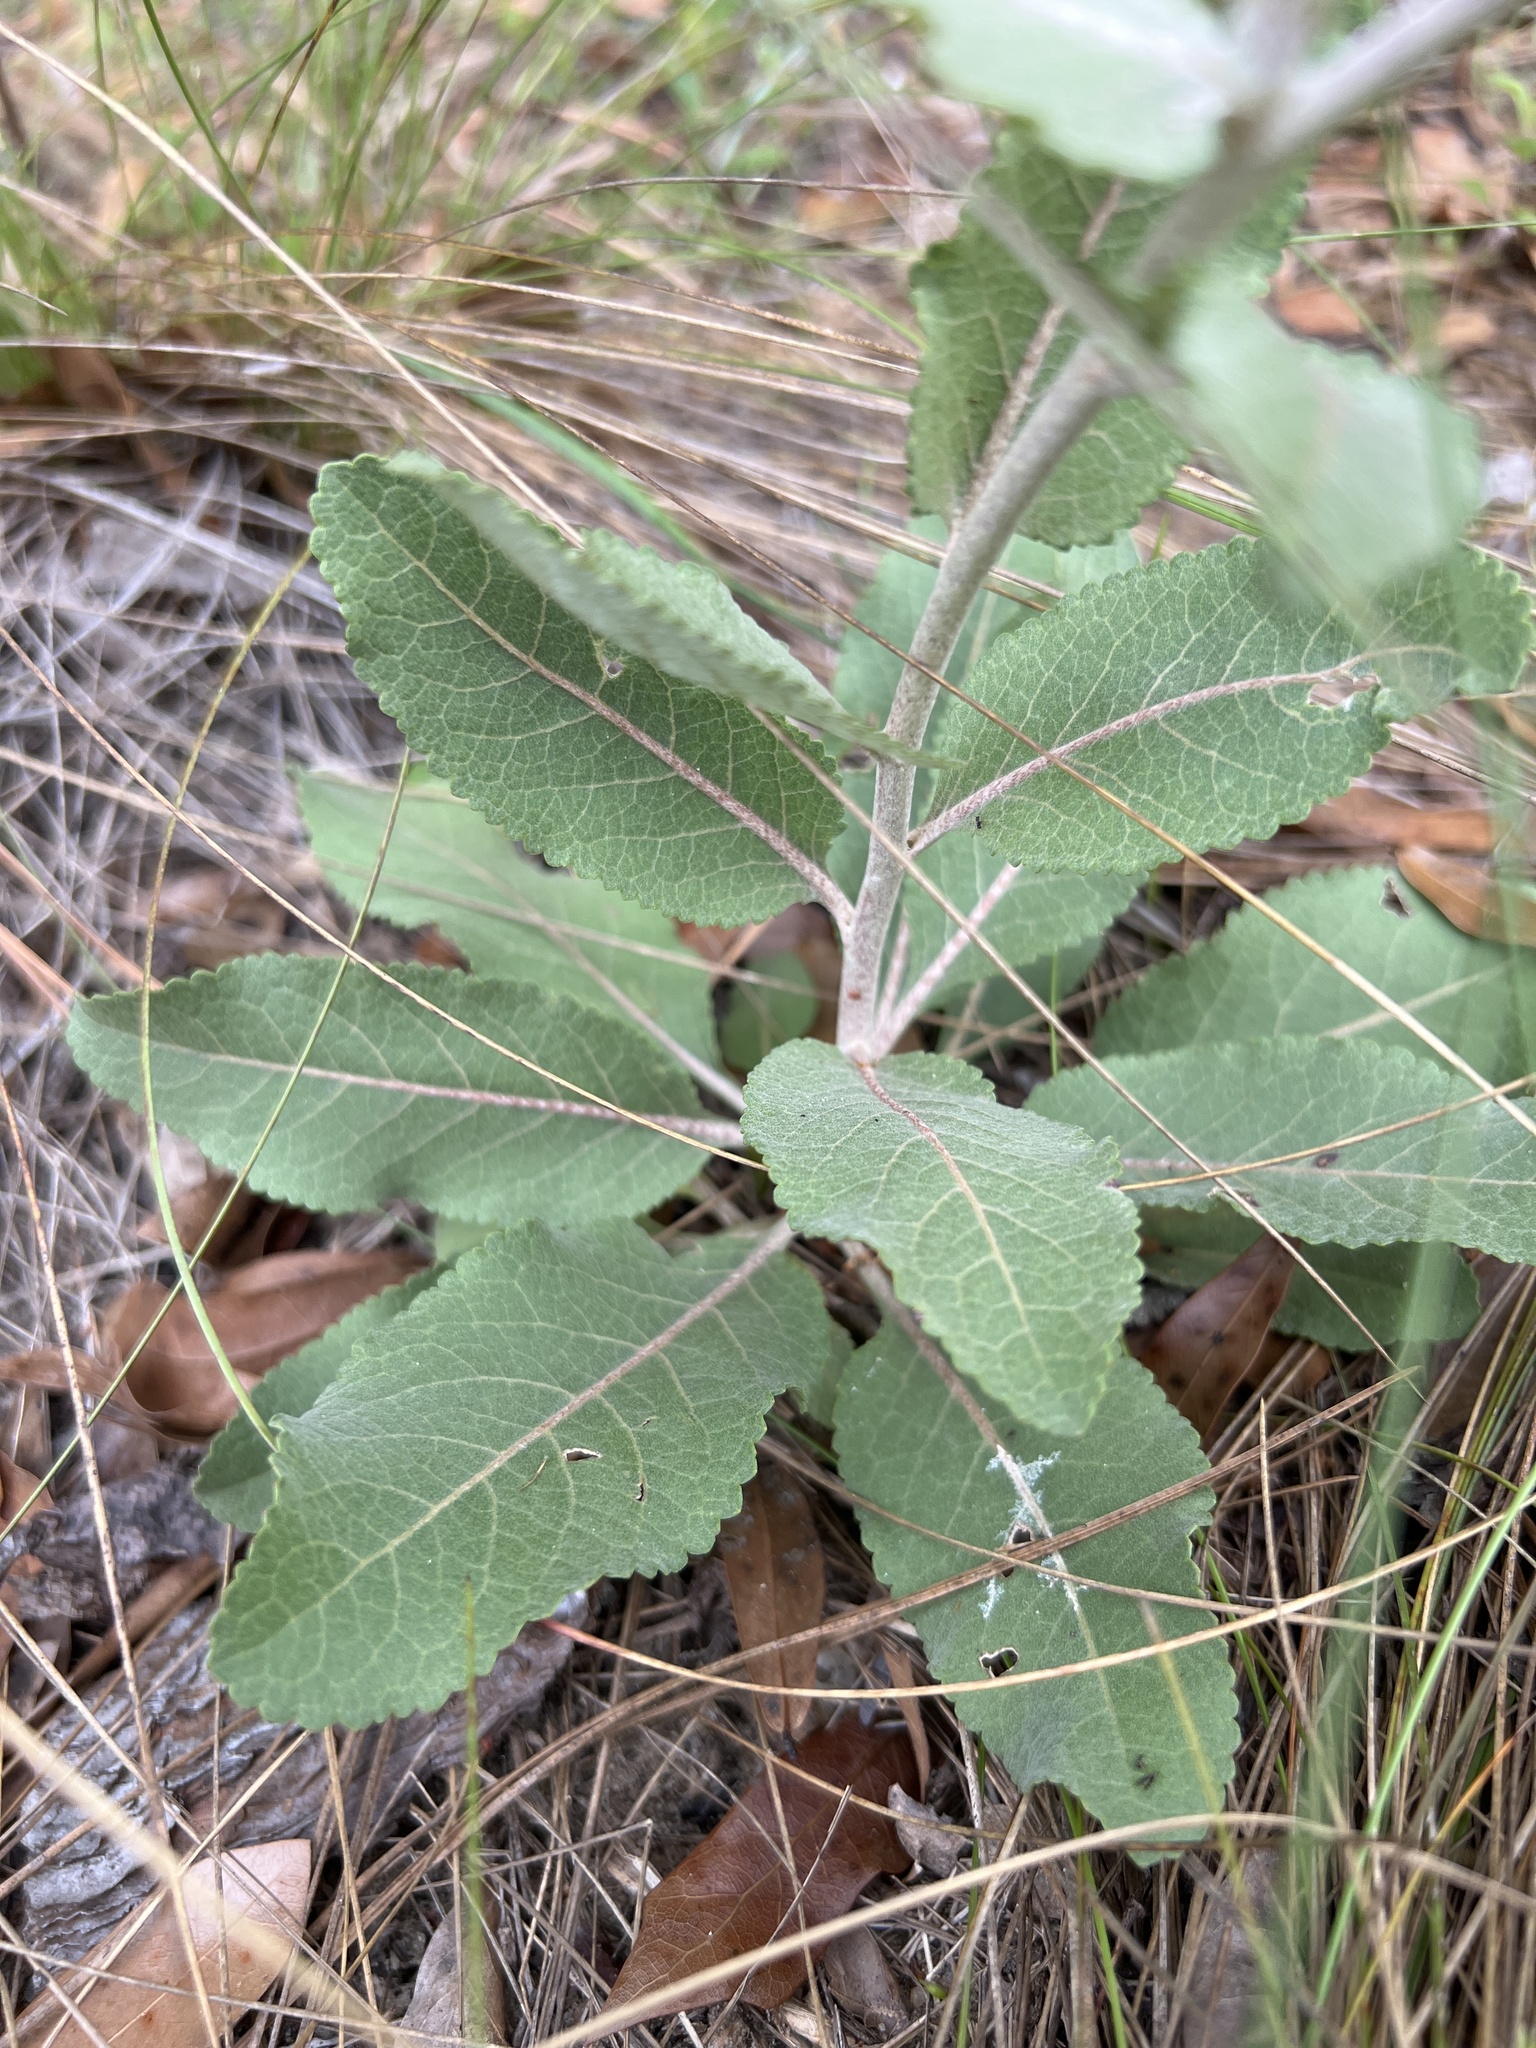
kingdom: Plantae
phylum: Tracheophyta
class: Magnoliopsida
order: Asterales
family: Asteraceae
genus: Berlandiera
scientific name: Berlandiera pumila
